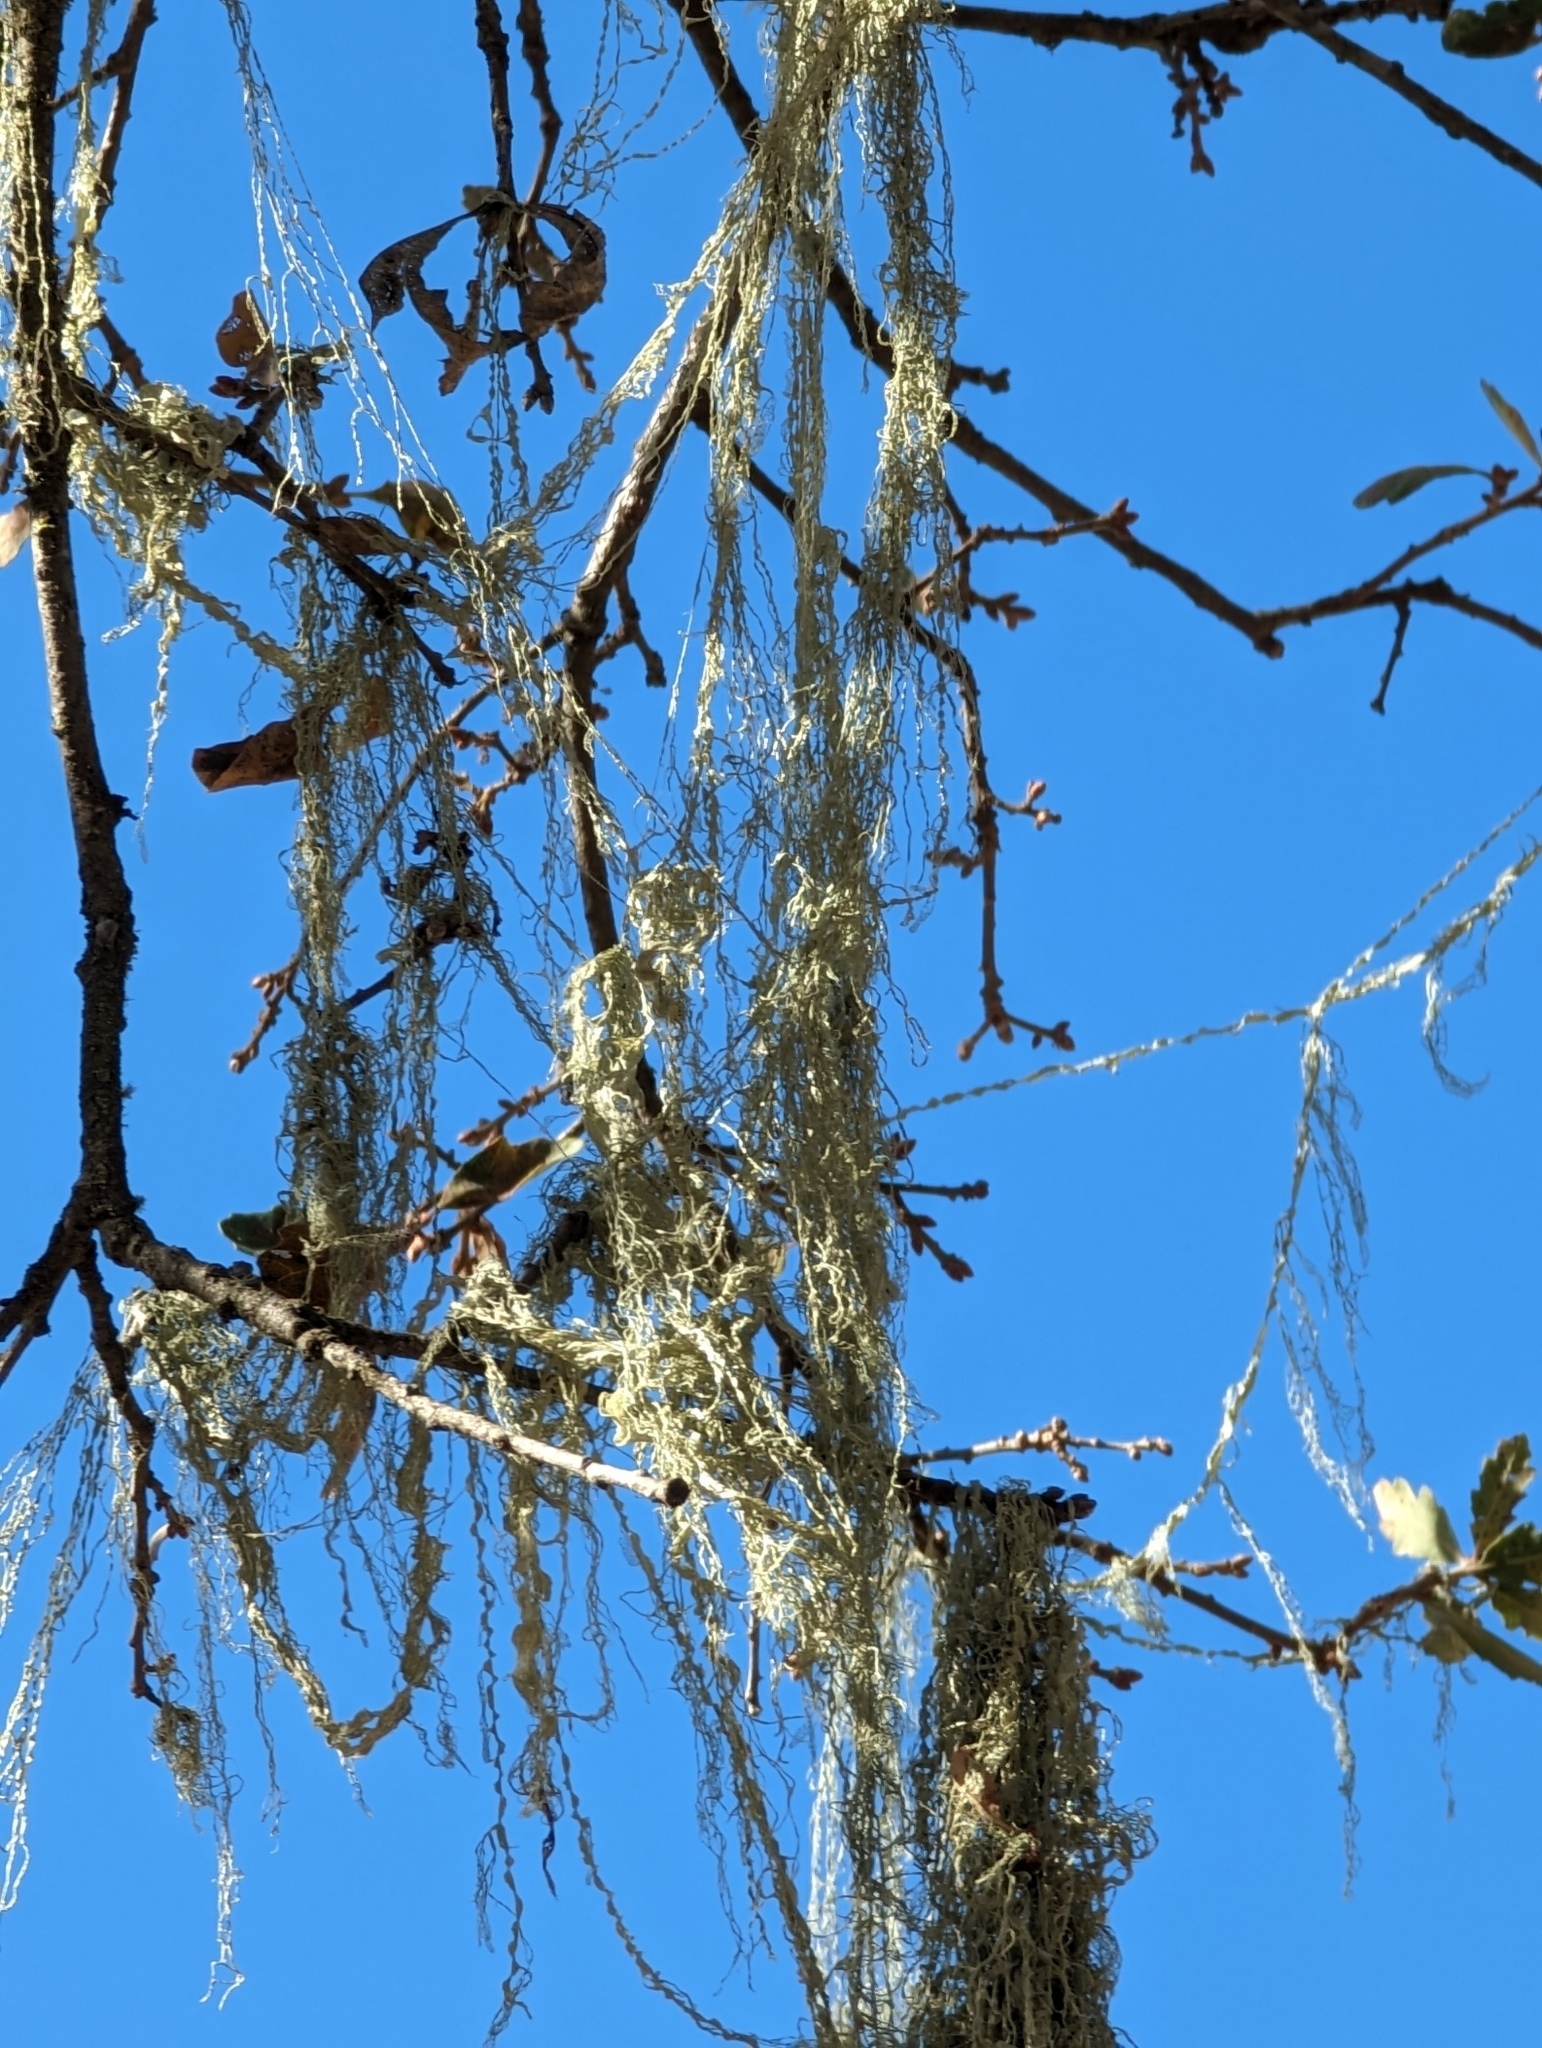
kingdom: Fungi
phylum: Ascomycota
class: Lecanoromycetes
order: Lecanorales
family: Ramalinaceae
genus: Ramalina
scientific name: Ramalina menziesii
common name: Lace lichen
